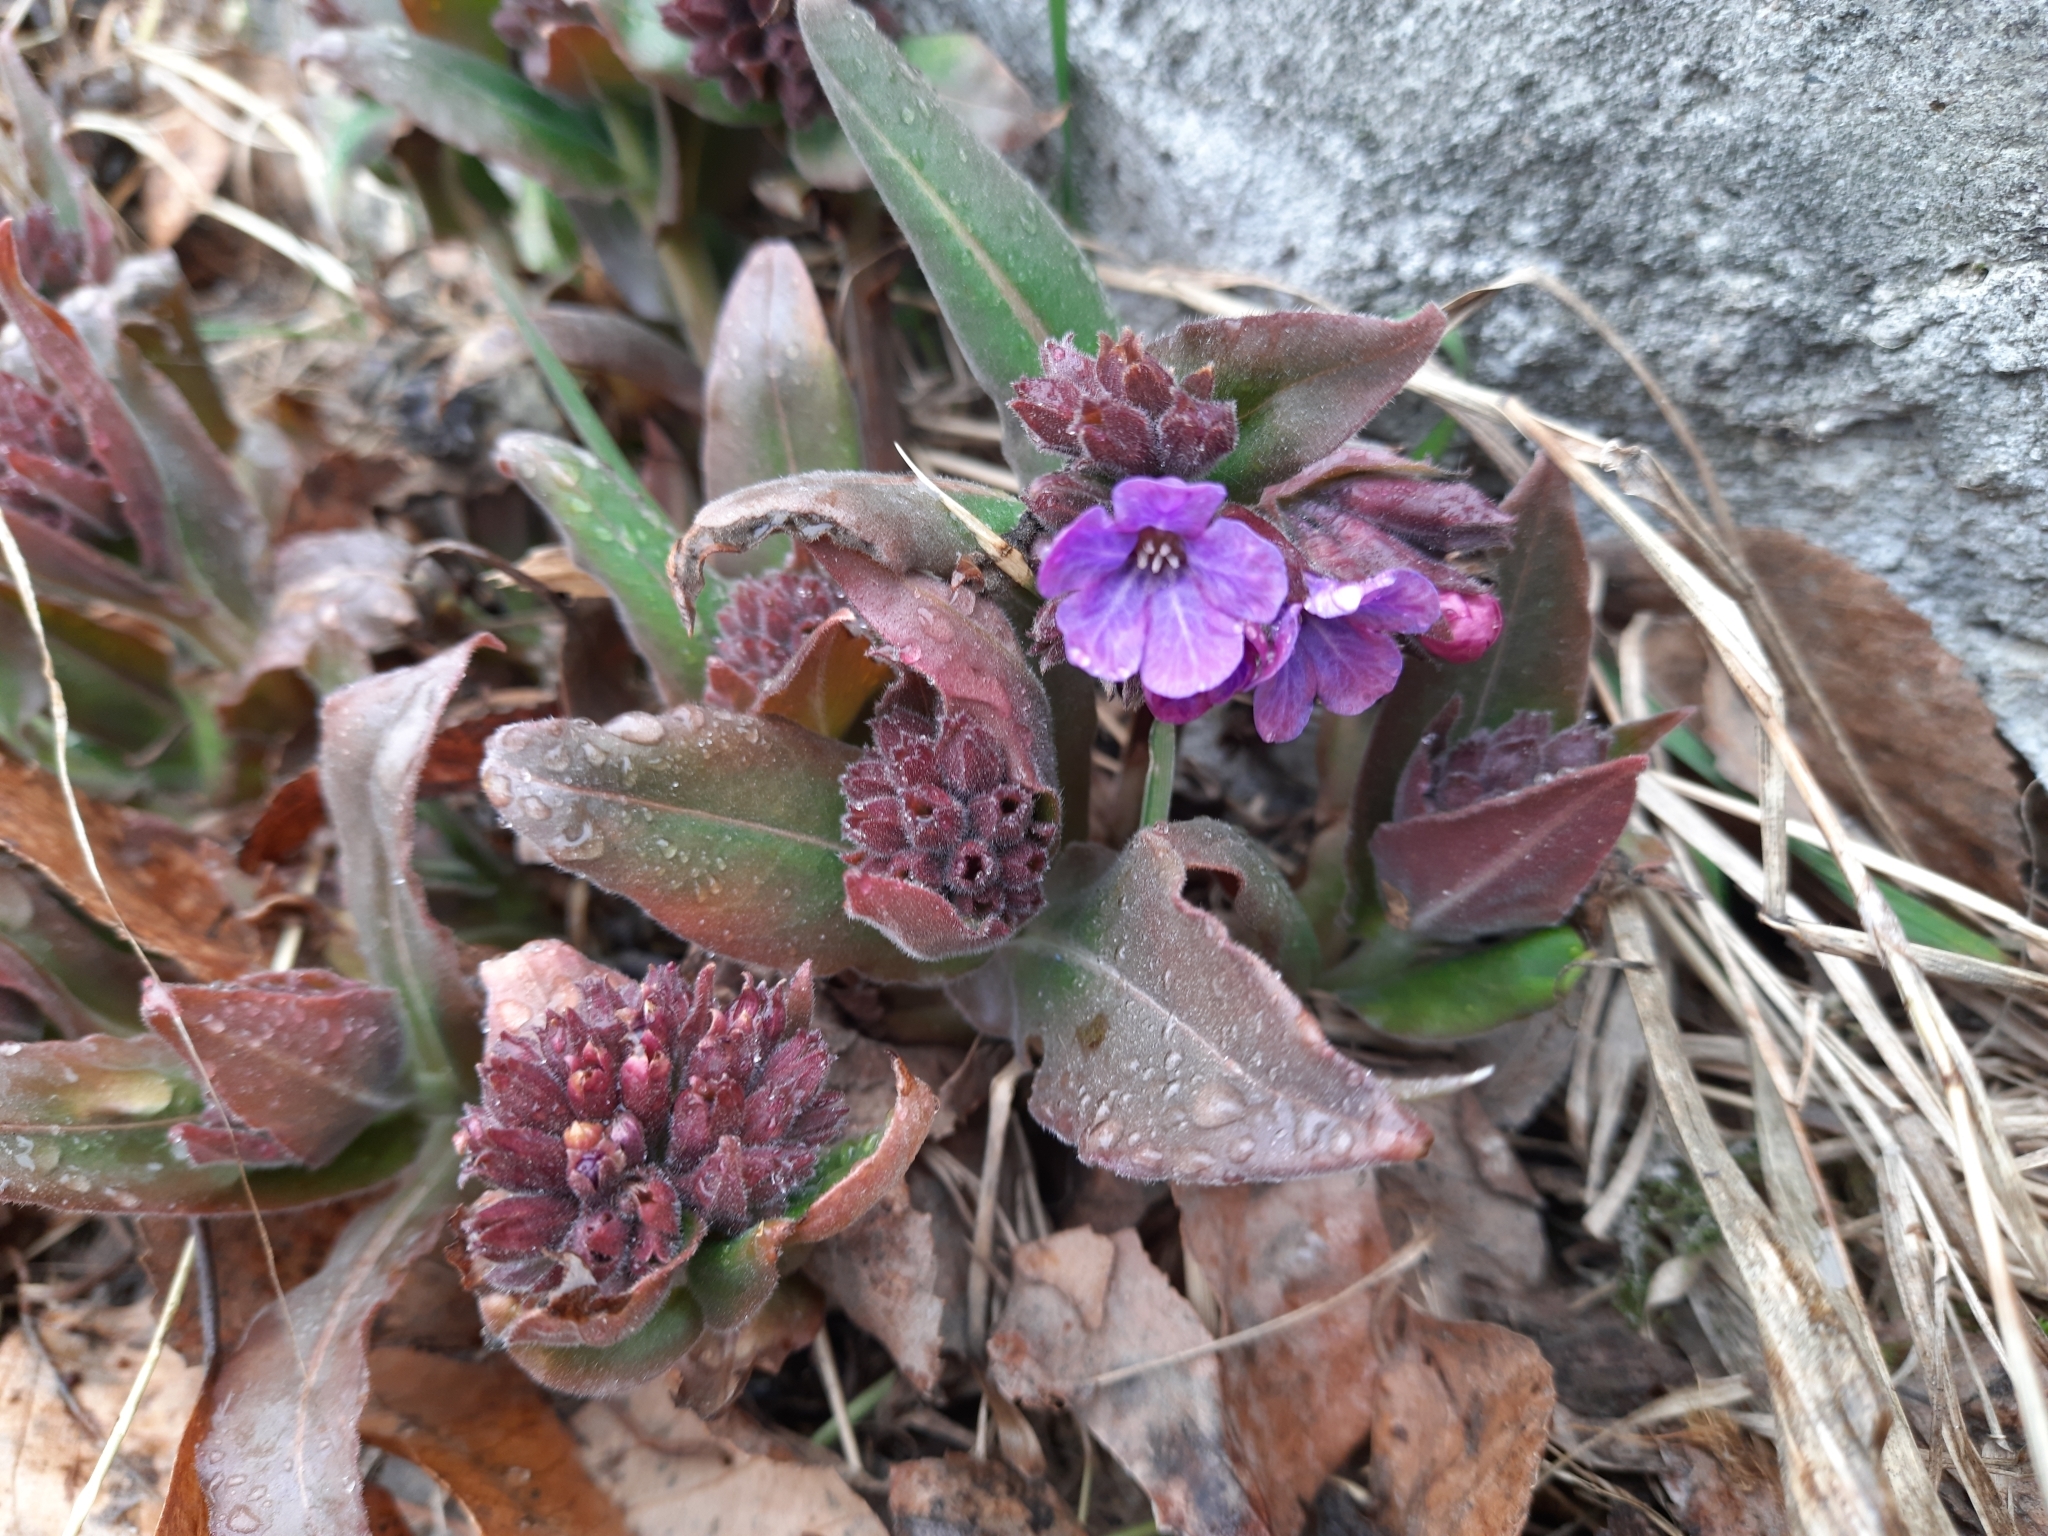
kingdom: Plantae
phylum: Tracheophyta
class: Magnoliopsida
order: Boraginales
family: Boraginaceae
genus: Pulmonaria
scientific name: Pulmonaria mollis
